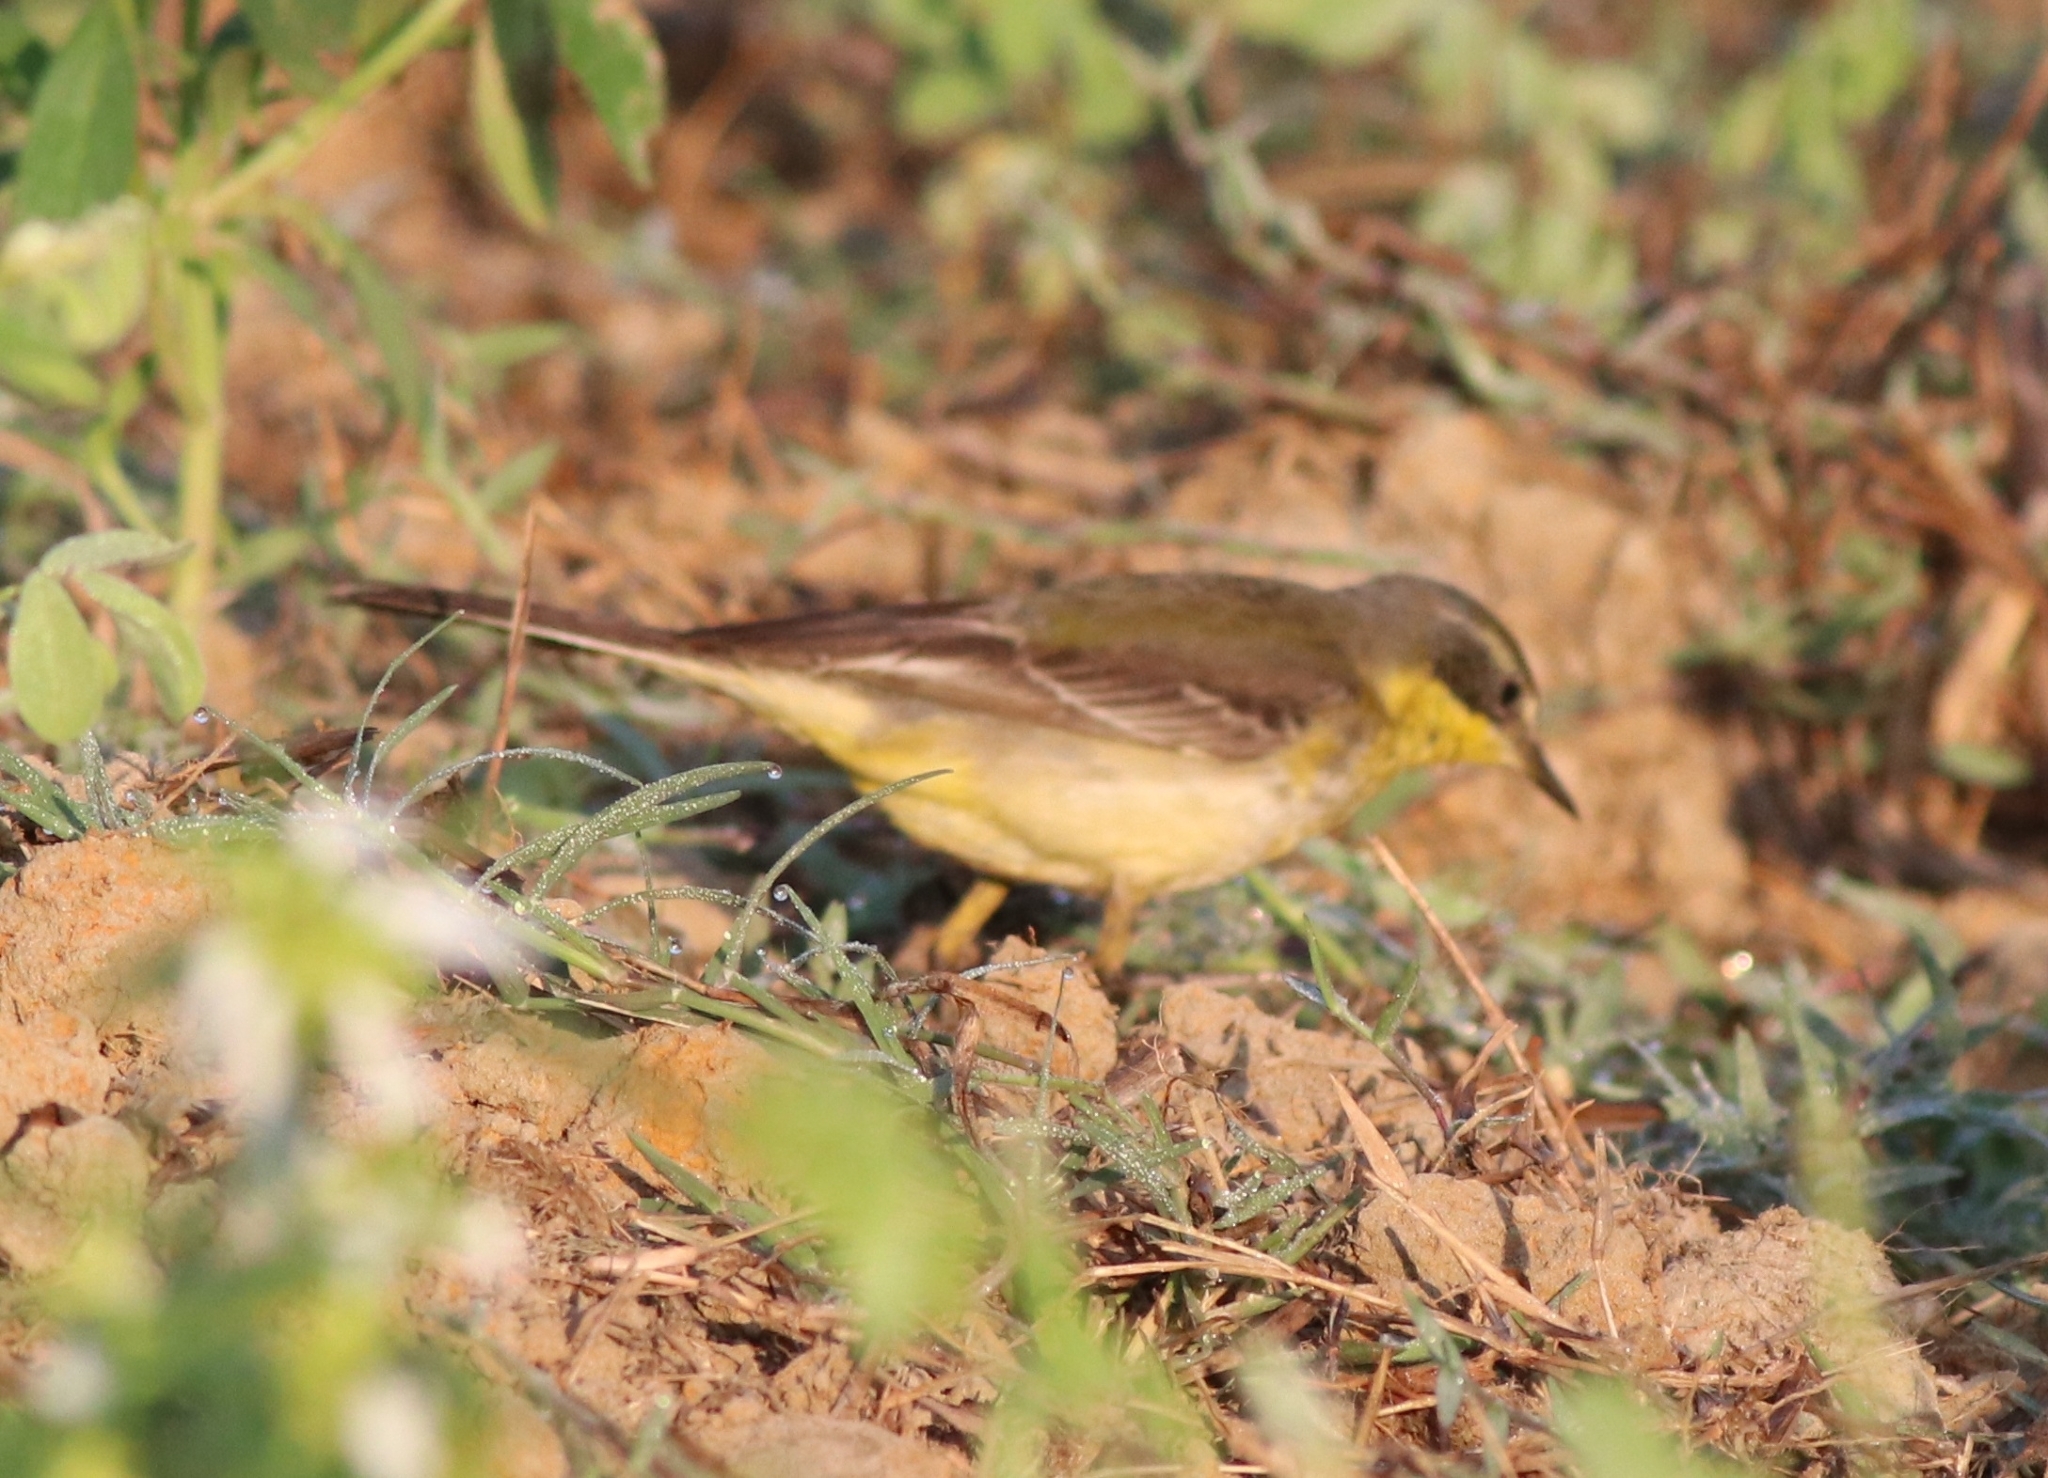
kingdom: Animalia
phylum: Chordata
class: Aves
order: Passeriformes
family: Motacillidae
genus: Motacilla
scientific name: Motacilla flava
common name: Western yellow wagtail
